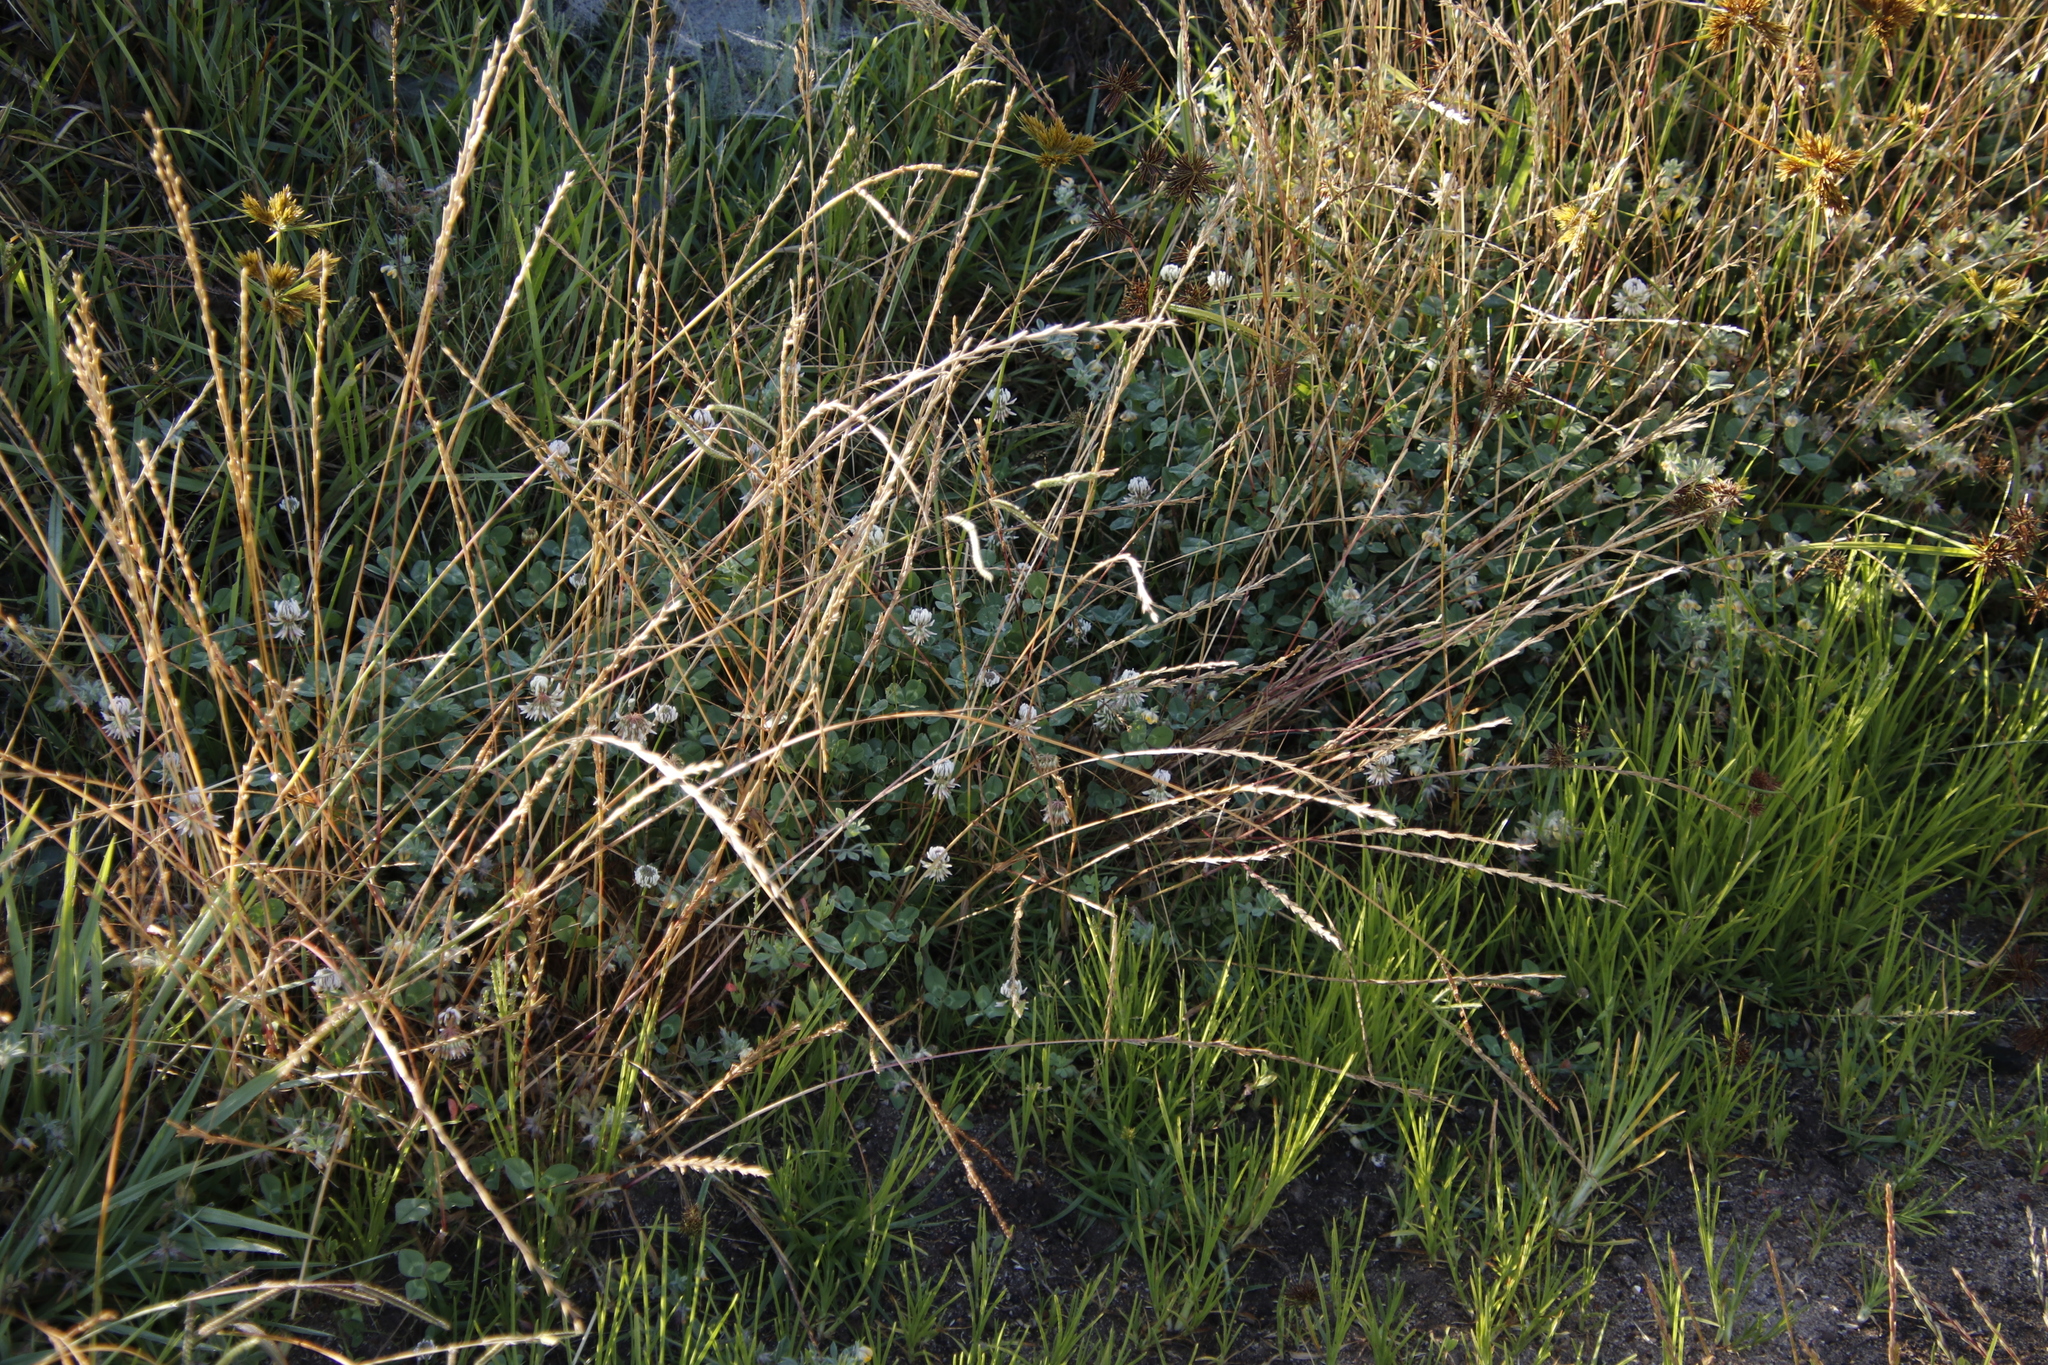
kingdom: Plantae
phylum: Tracheophyta
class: Magnoliopsida
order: Fabales
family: Fabaceae
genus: Trifolium
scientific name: Trifolium repens
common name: White clover
